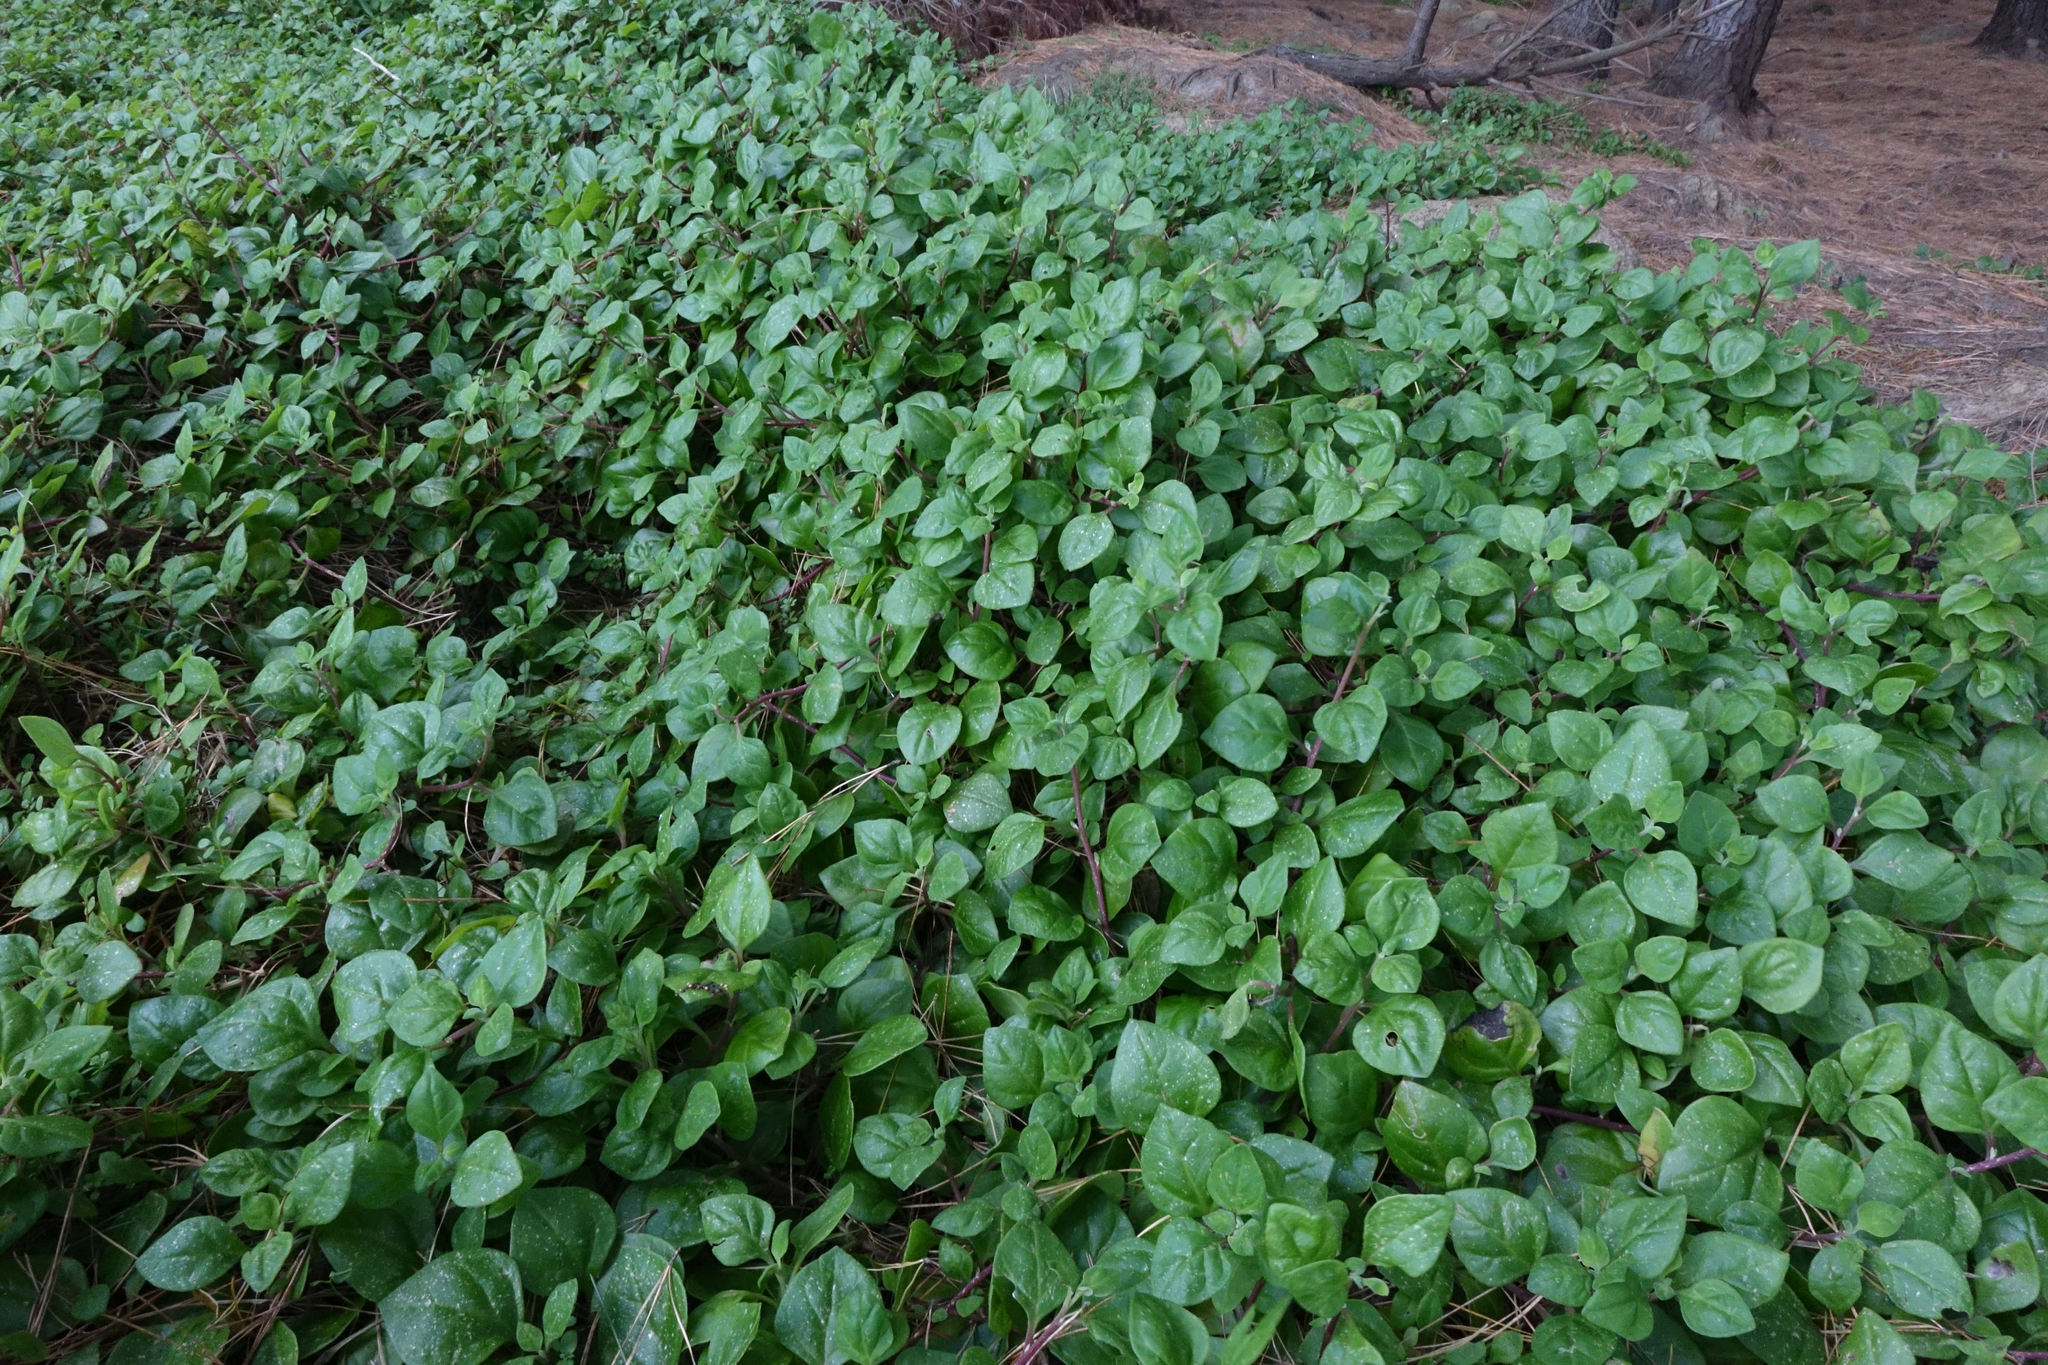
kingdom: Plantae
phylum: Tracheophyta
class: Magnoliopsida
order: Caryophyllales
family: Aizoaceae
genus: Tetragonia
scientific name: Tetragonia implexicoma
